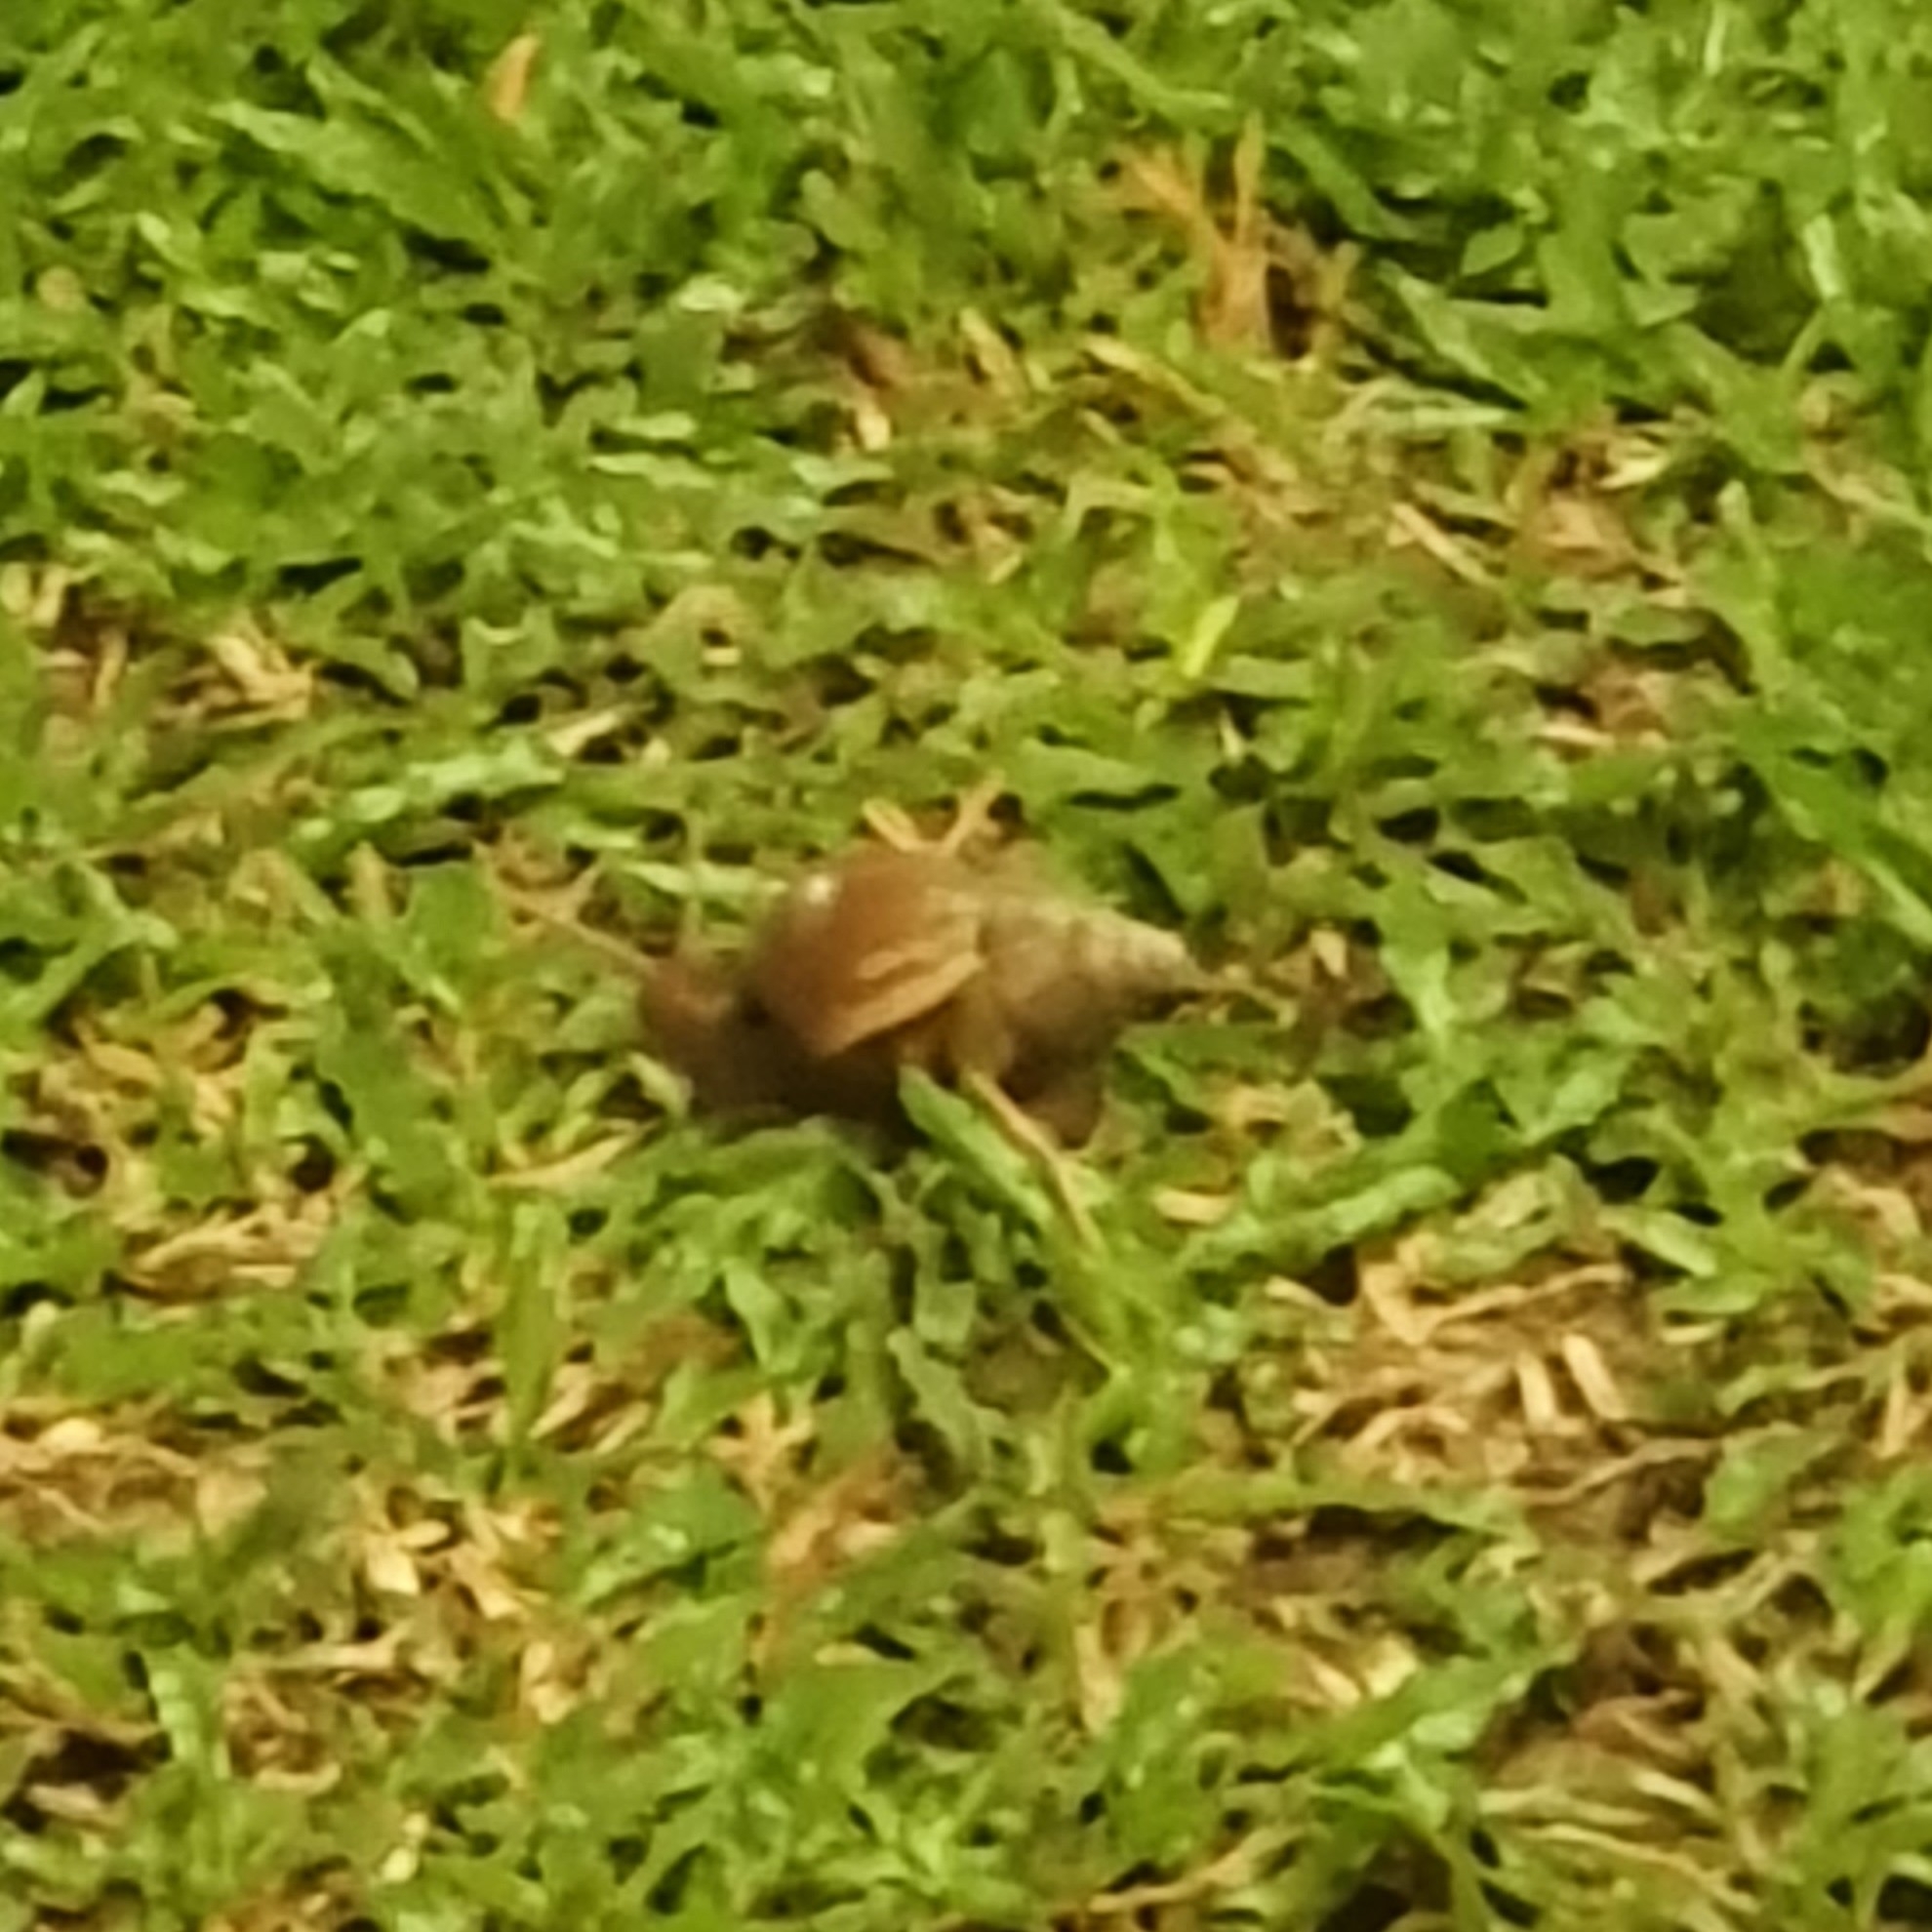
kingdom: Animalia
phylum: Mollusca
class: Gastropoda
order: Stylommatophora
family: Achatinidae
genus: Lissachatina
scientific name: Lissachatina fulica
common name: Giant african snail
